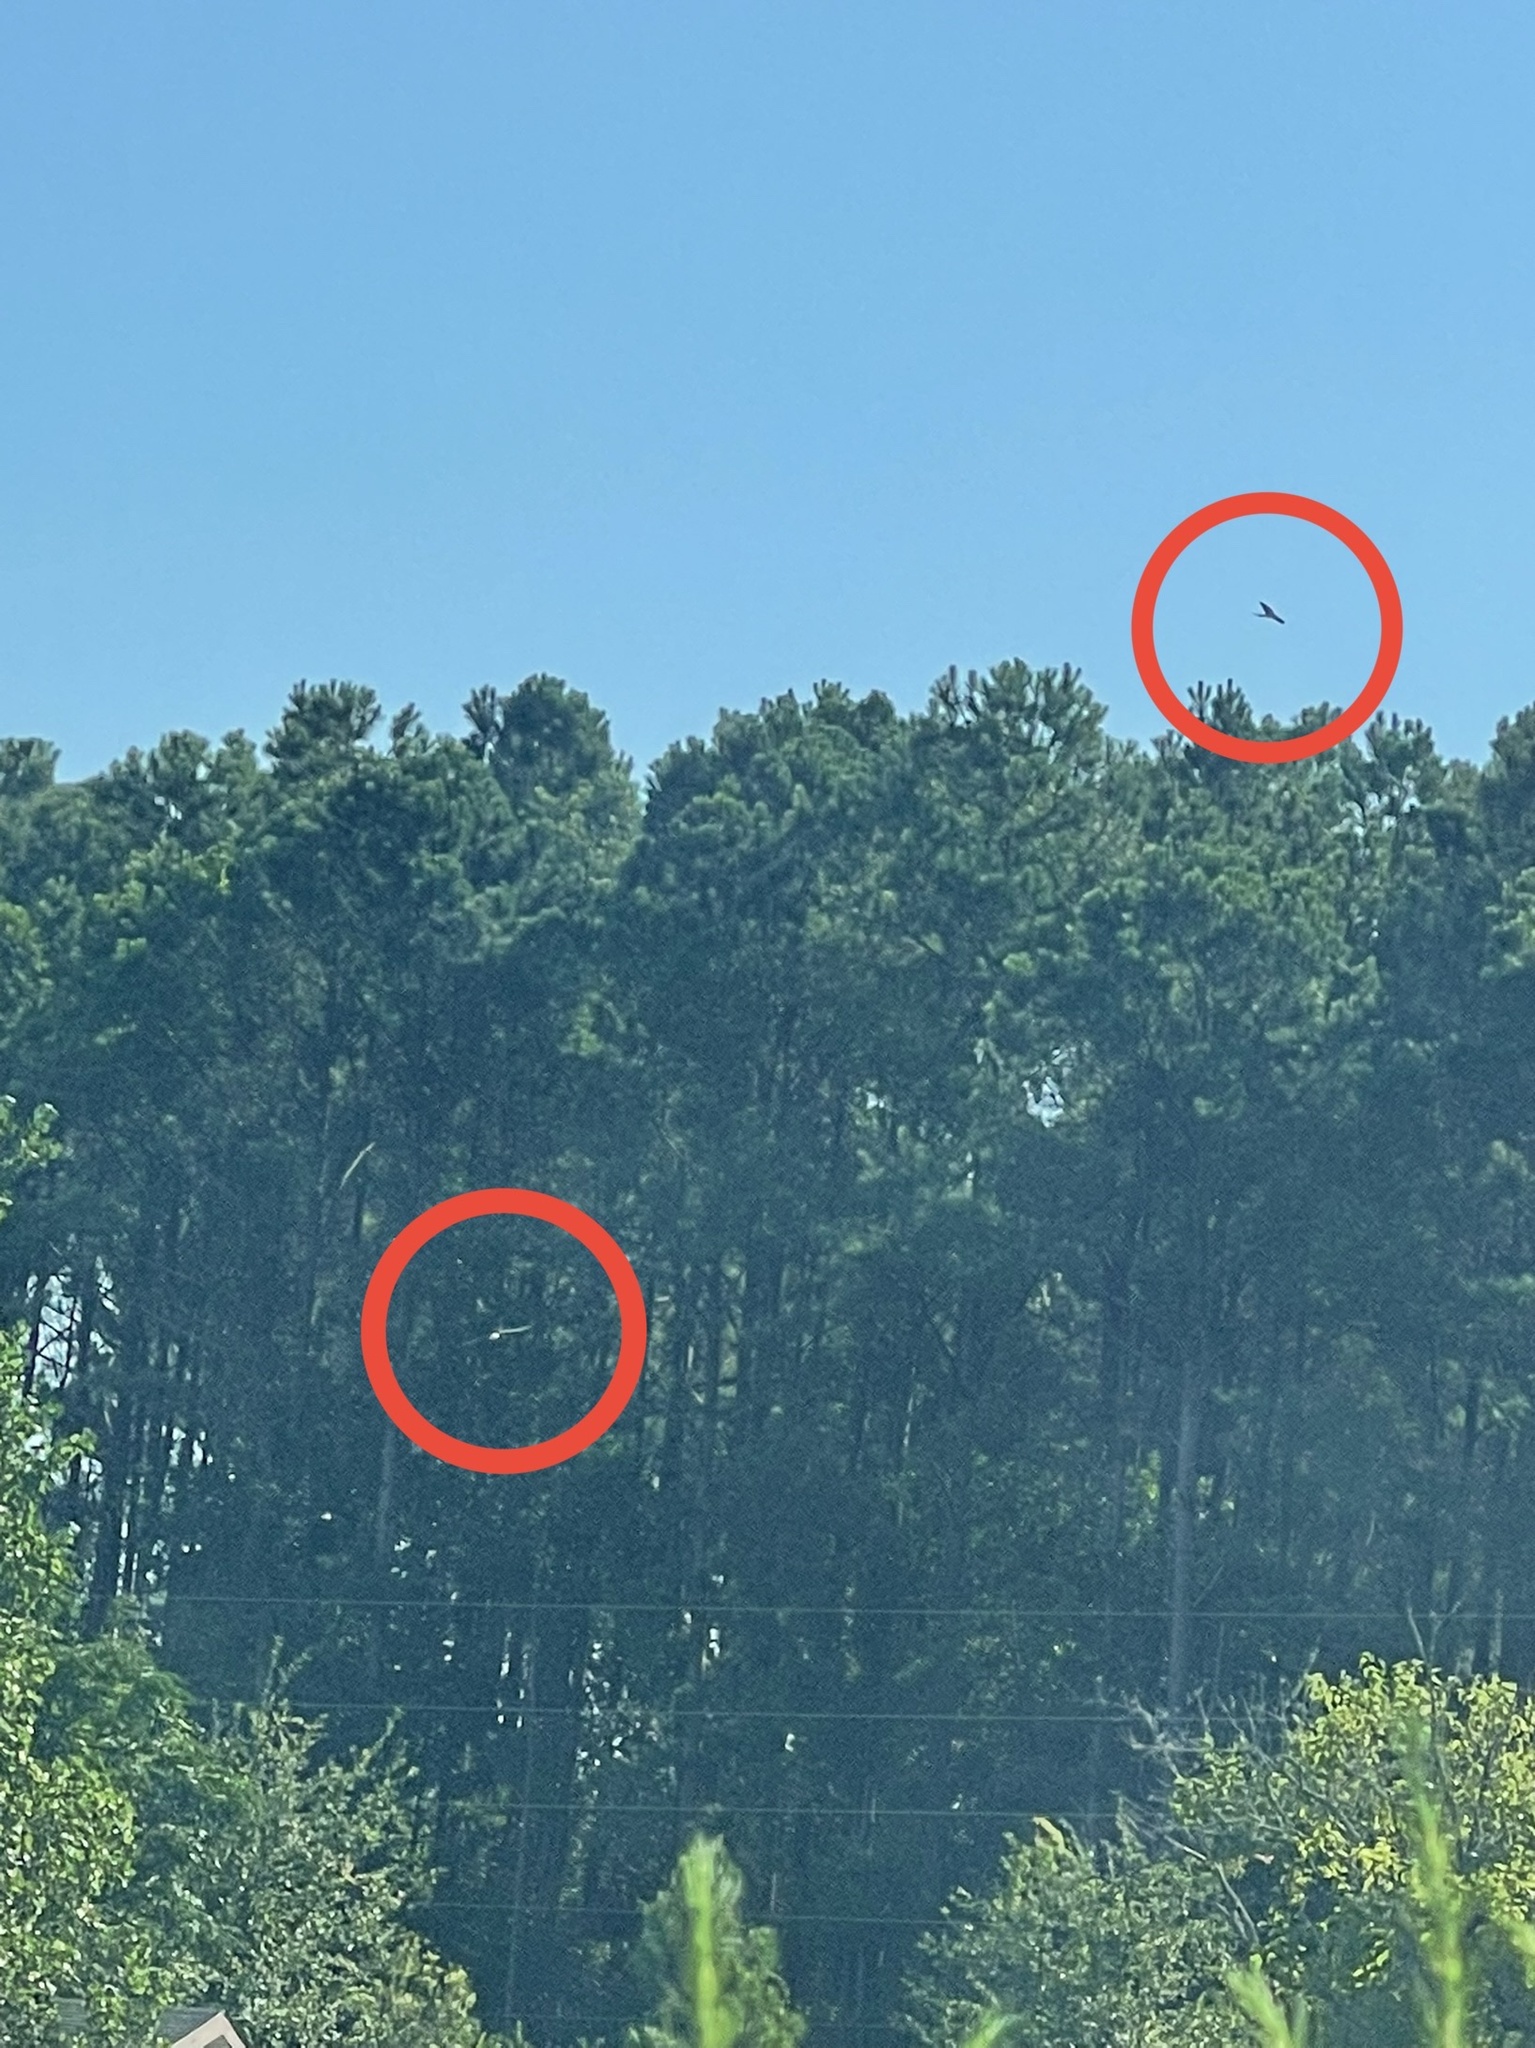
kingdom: Animalia
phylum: Chordata
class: Aves
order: Accipitriformes
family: Accipitridae
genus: Elanoides
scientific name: Elanoides forficatus
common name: Swallow-tailed kite
